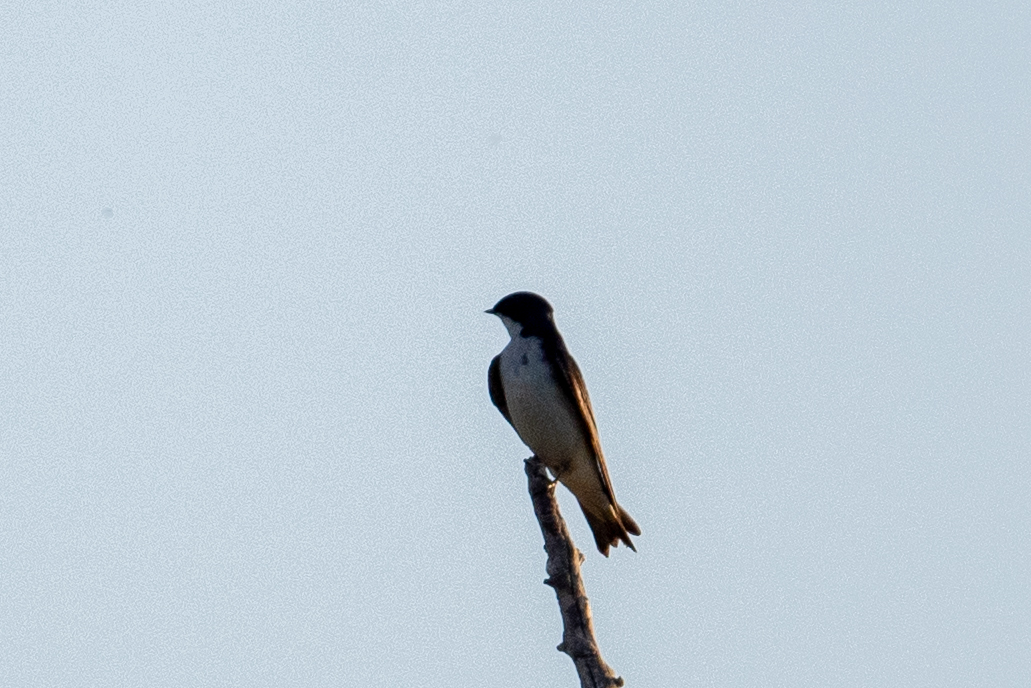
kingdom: Animalia
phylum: Chordata
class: Aves
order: Passeriformes
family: Hirundinidae
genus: Tachycineta
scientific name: Tachycineta bicolor
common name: Tree swallow
